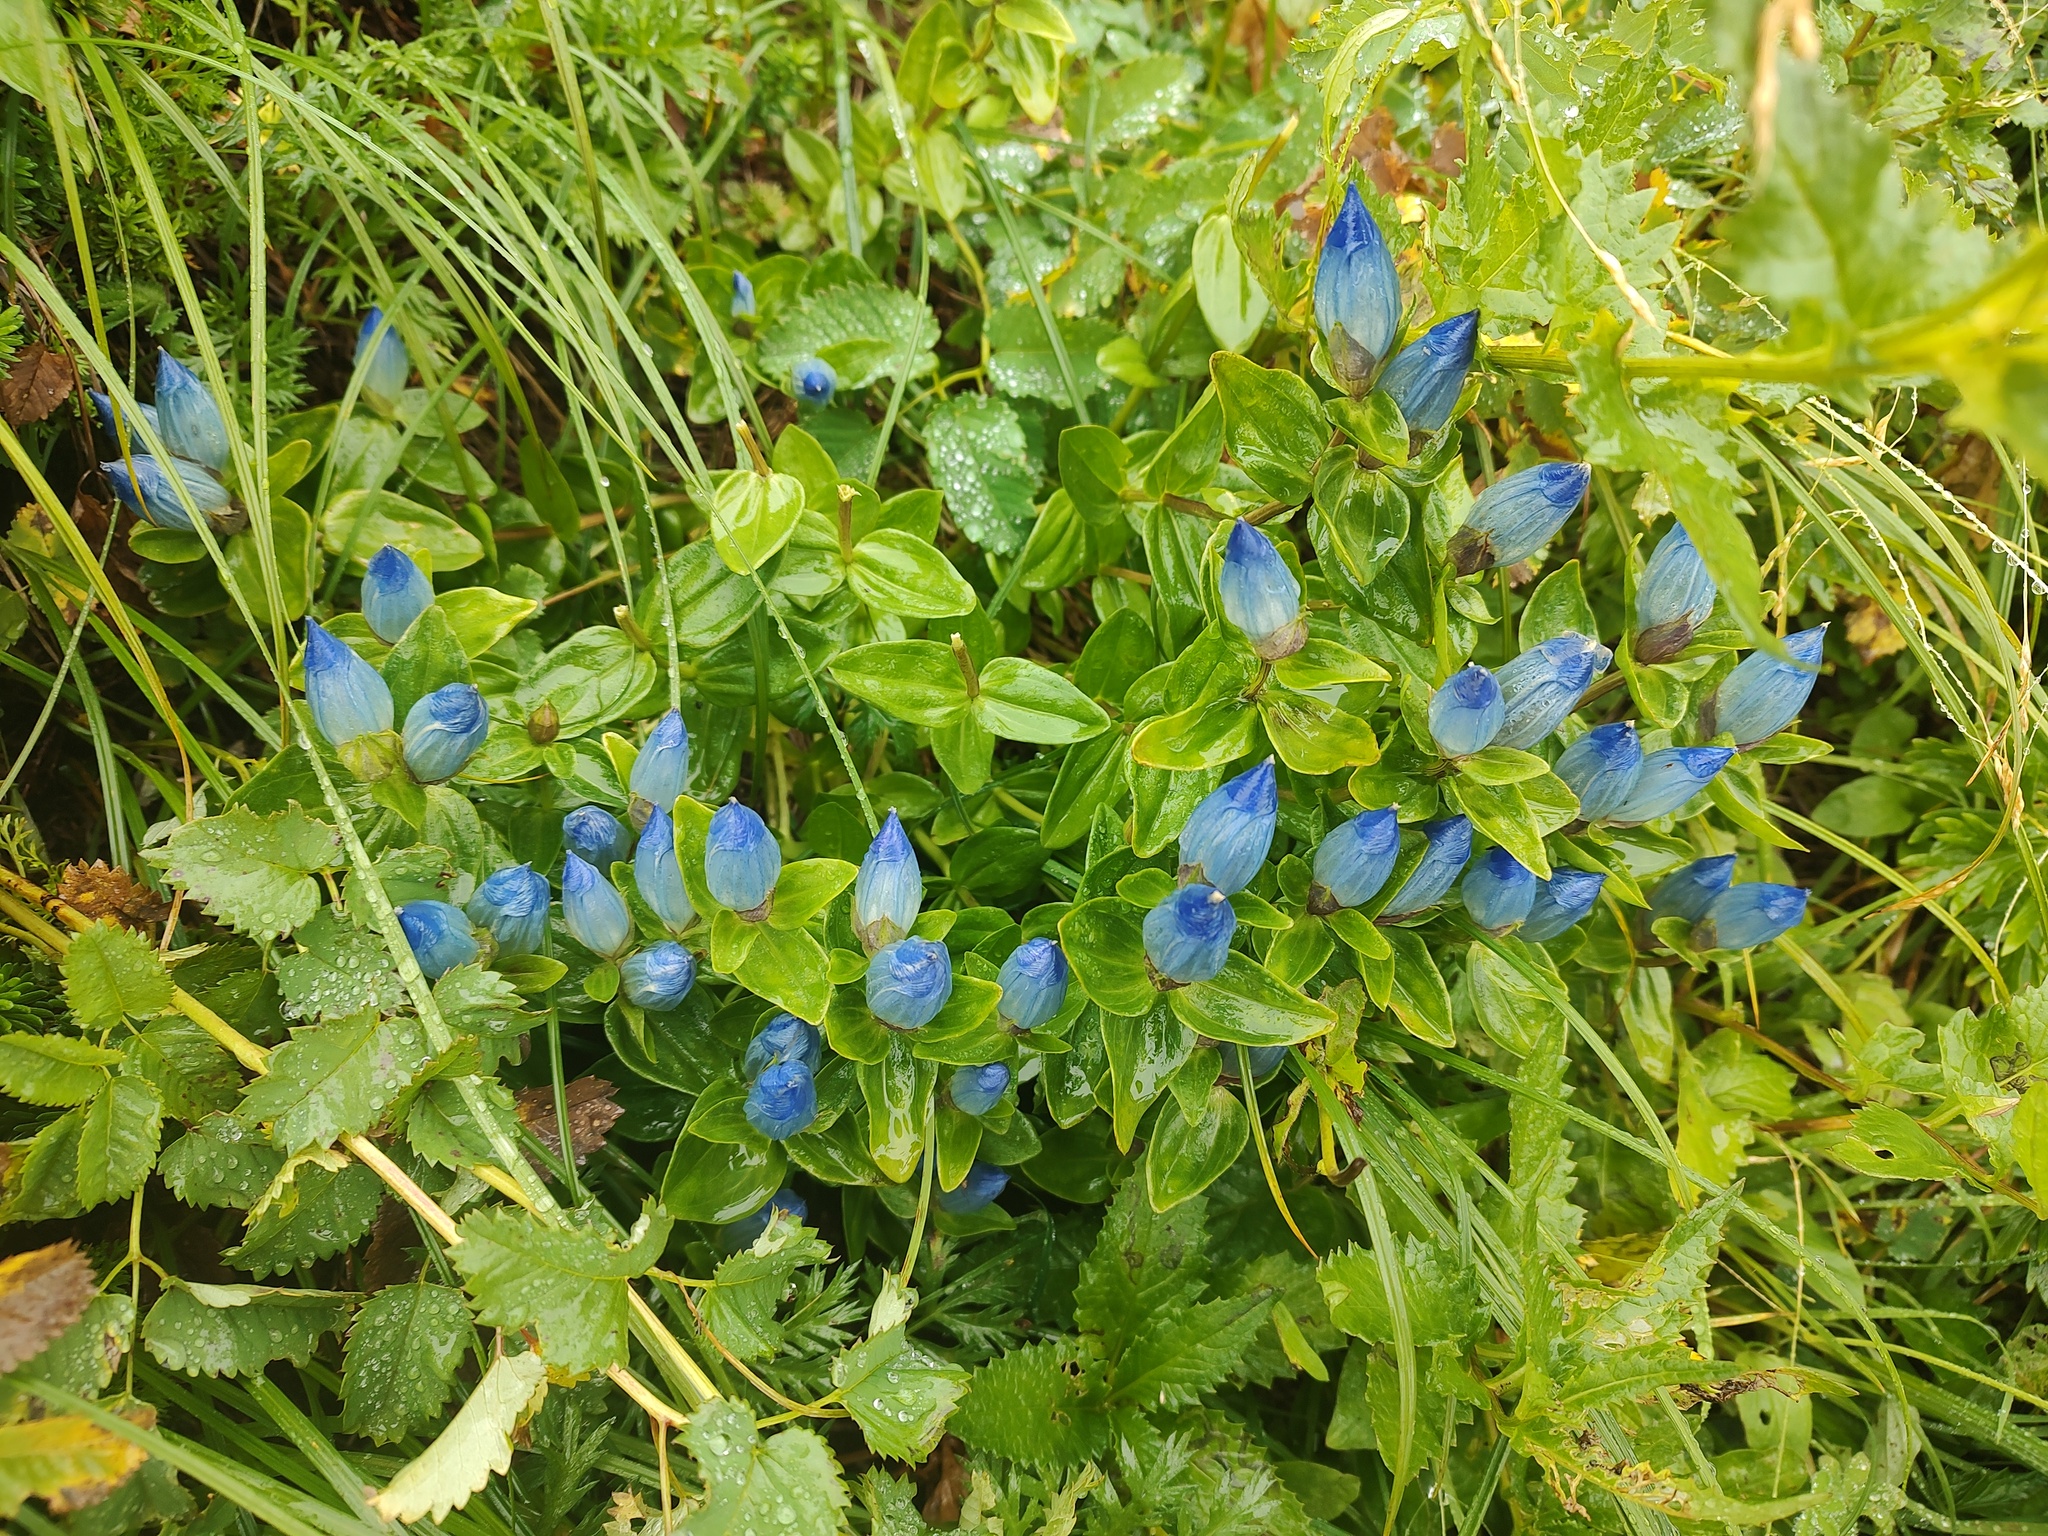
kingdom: Plantae
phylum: Tracheophyta
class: Magnoliopsida
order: Gentianales
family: Gentianaceae
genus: Gentiana
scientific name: Gentiana platypetala
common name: Broad-petalled gentian
